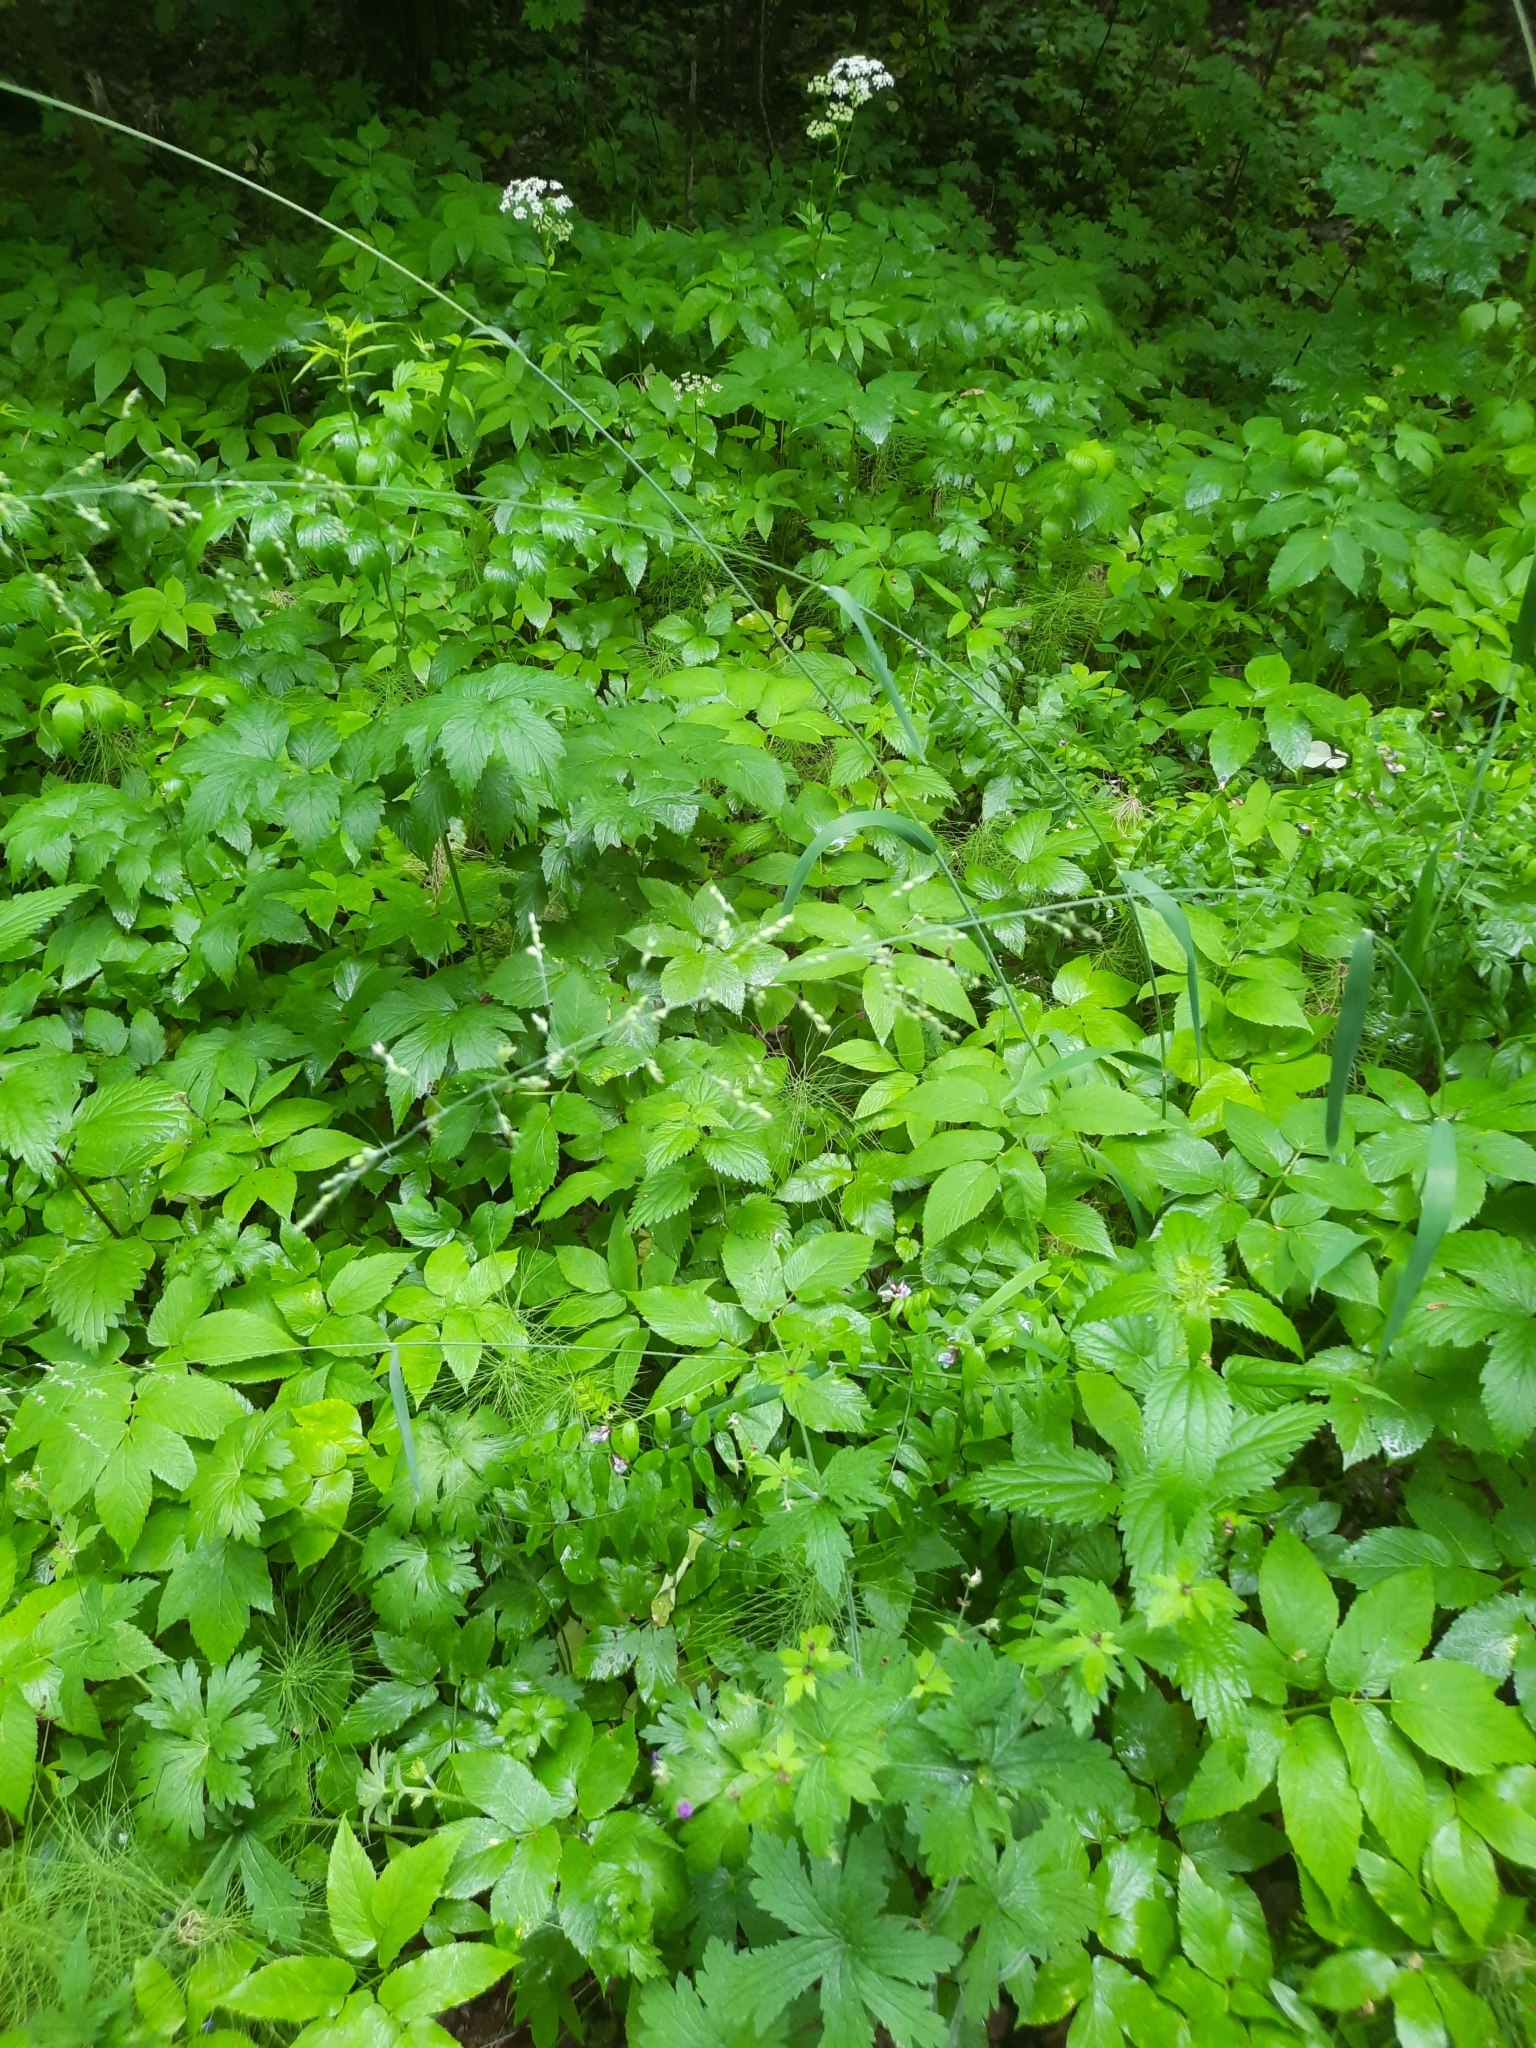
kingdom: Plantae
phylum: Tracheophyta
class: Liliopsida
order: Poales
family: Poaceae
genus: Milium
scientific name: Milium effusum
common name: Wood millet
